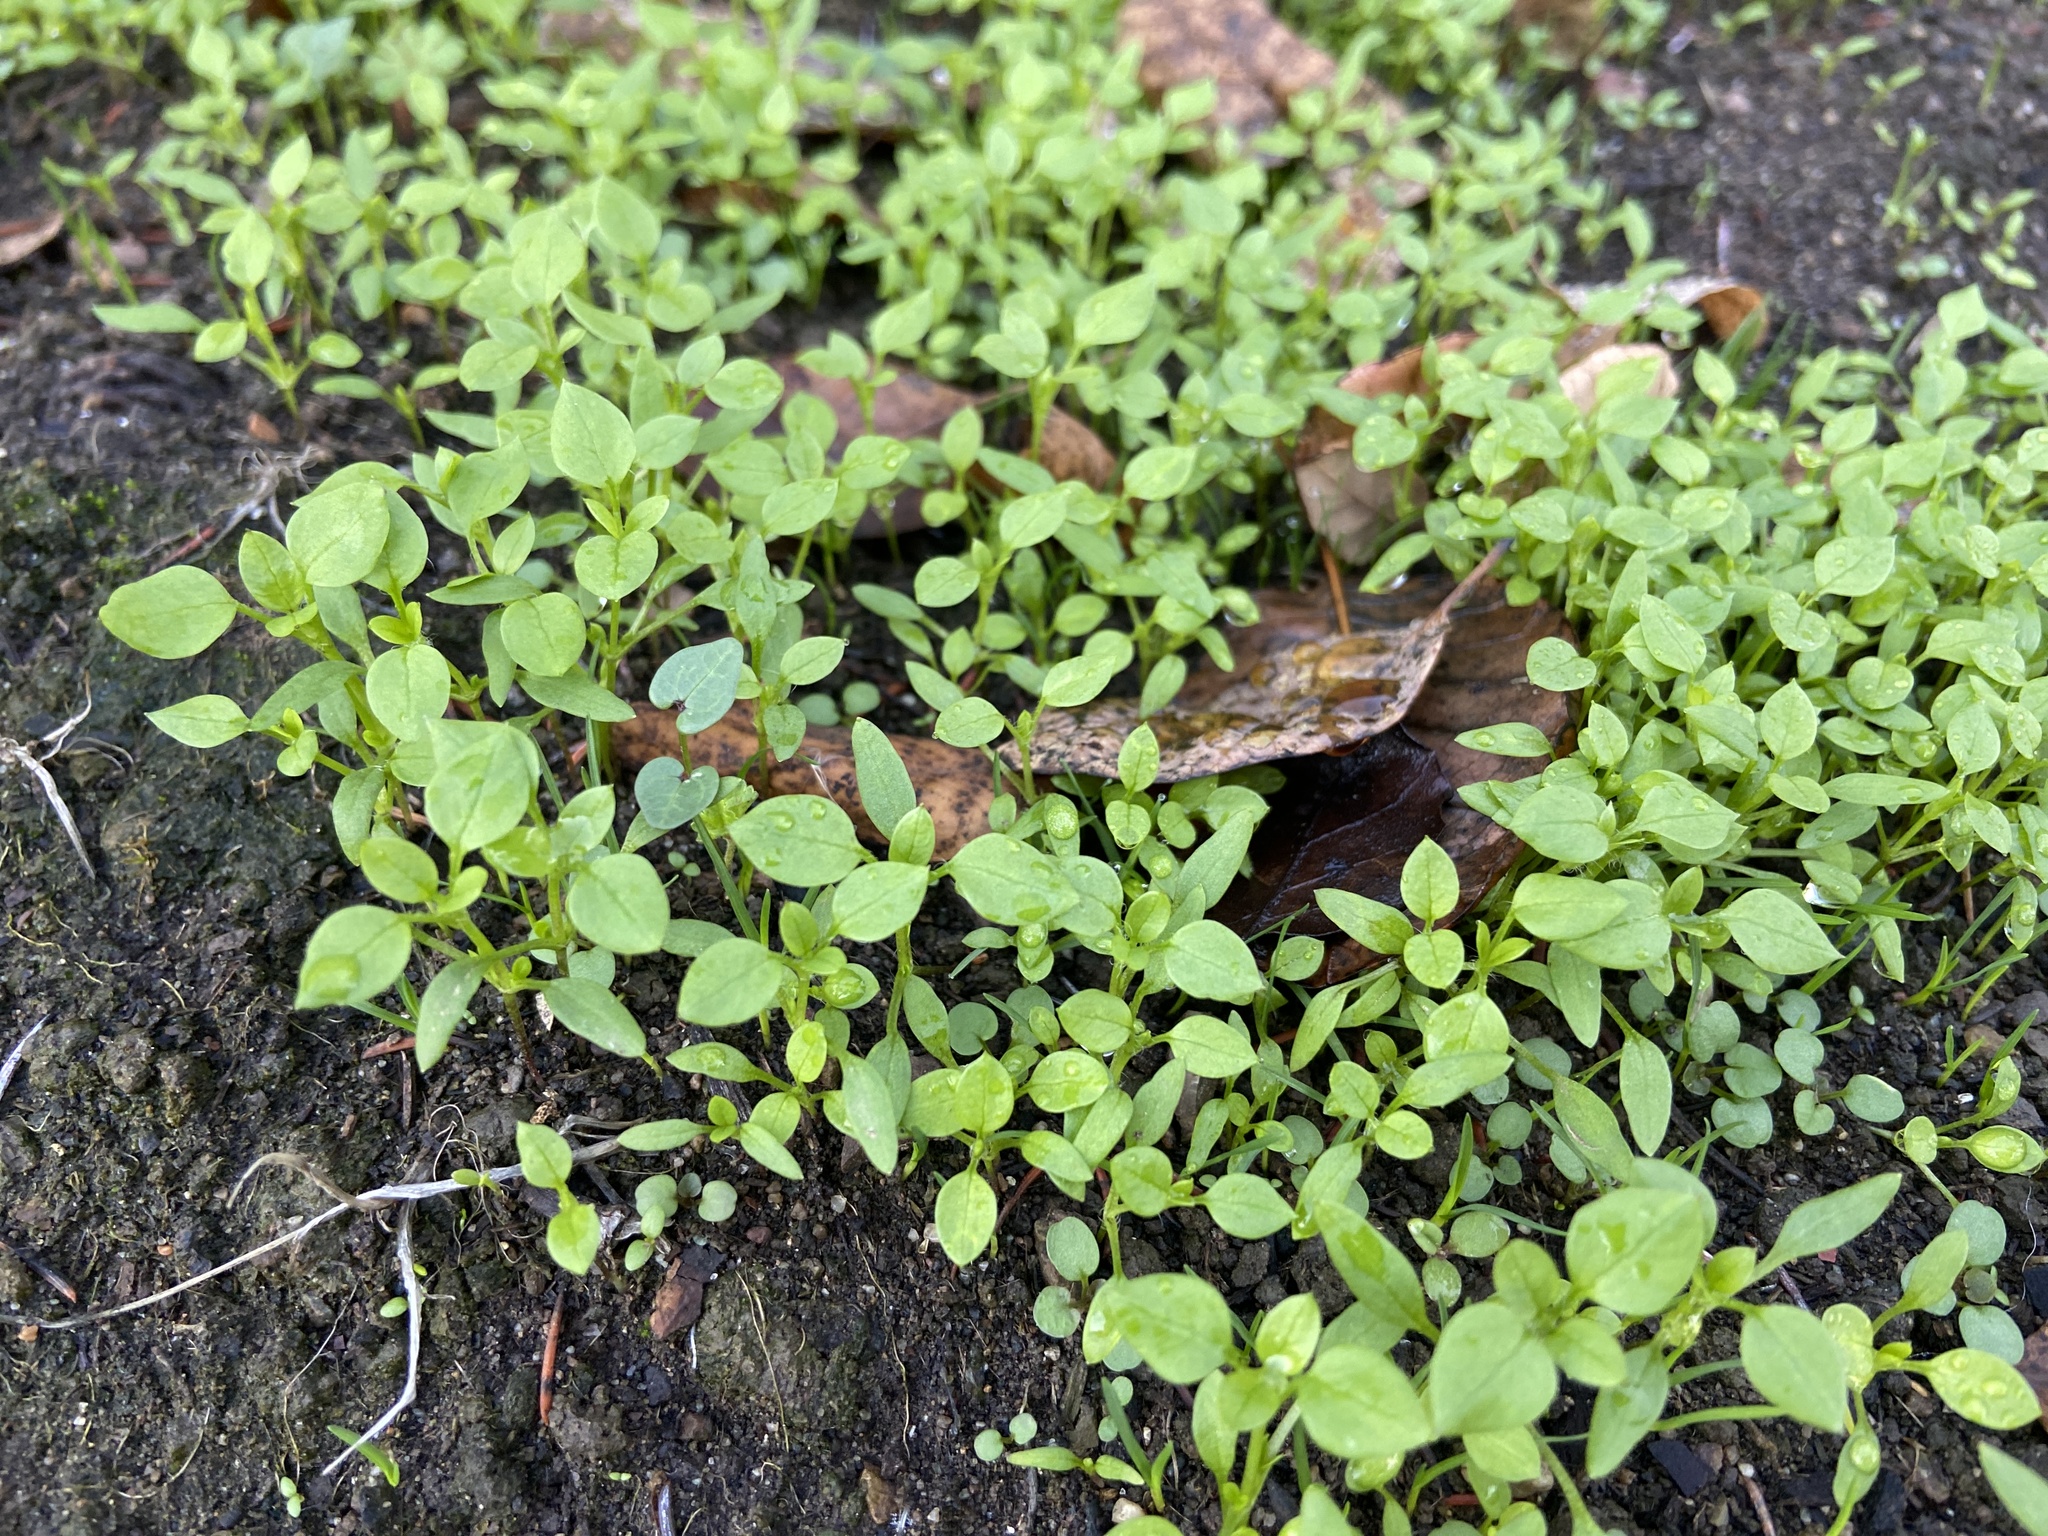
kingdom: Plantae
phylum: Tracheophyta
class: Magnoliopsida
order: Caryophyllales
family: Caryophyllaceae
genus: Stellaria
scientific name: Stellaria media
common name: Common chickweed
